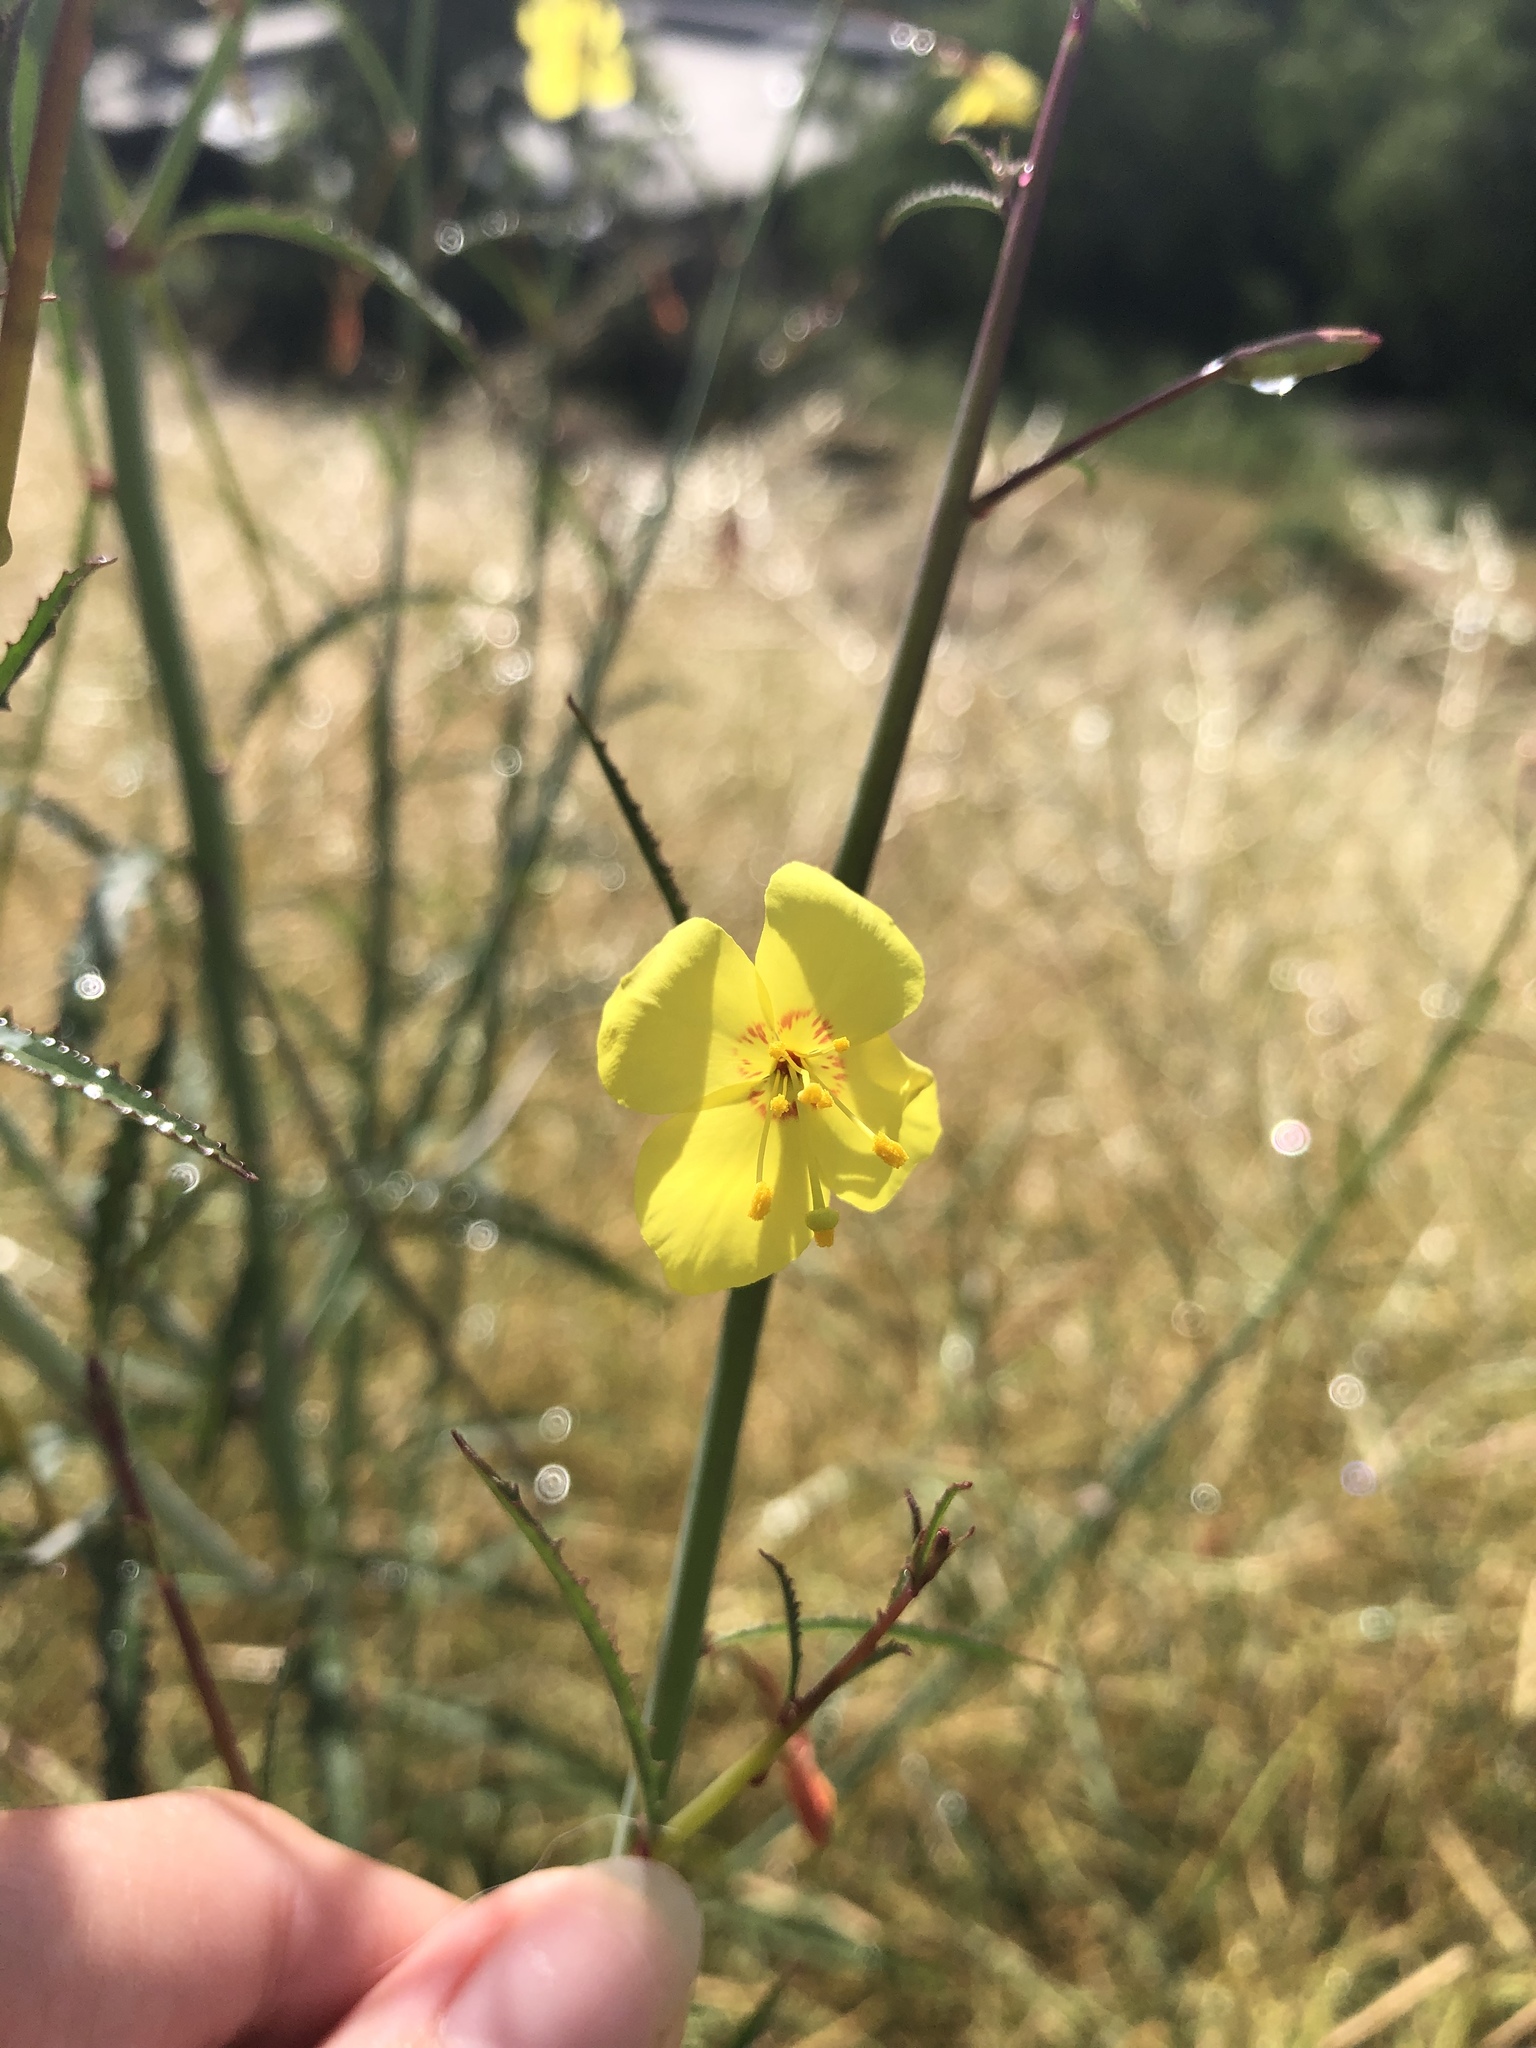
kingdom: Plantae
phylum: Tracheophyta
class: Magnoliopsida
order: Myrtales
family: Onagraceae
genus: Eulobus
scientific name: Eulobus californicus
